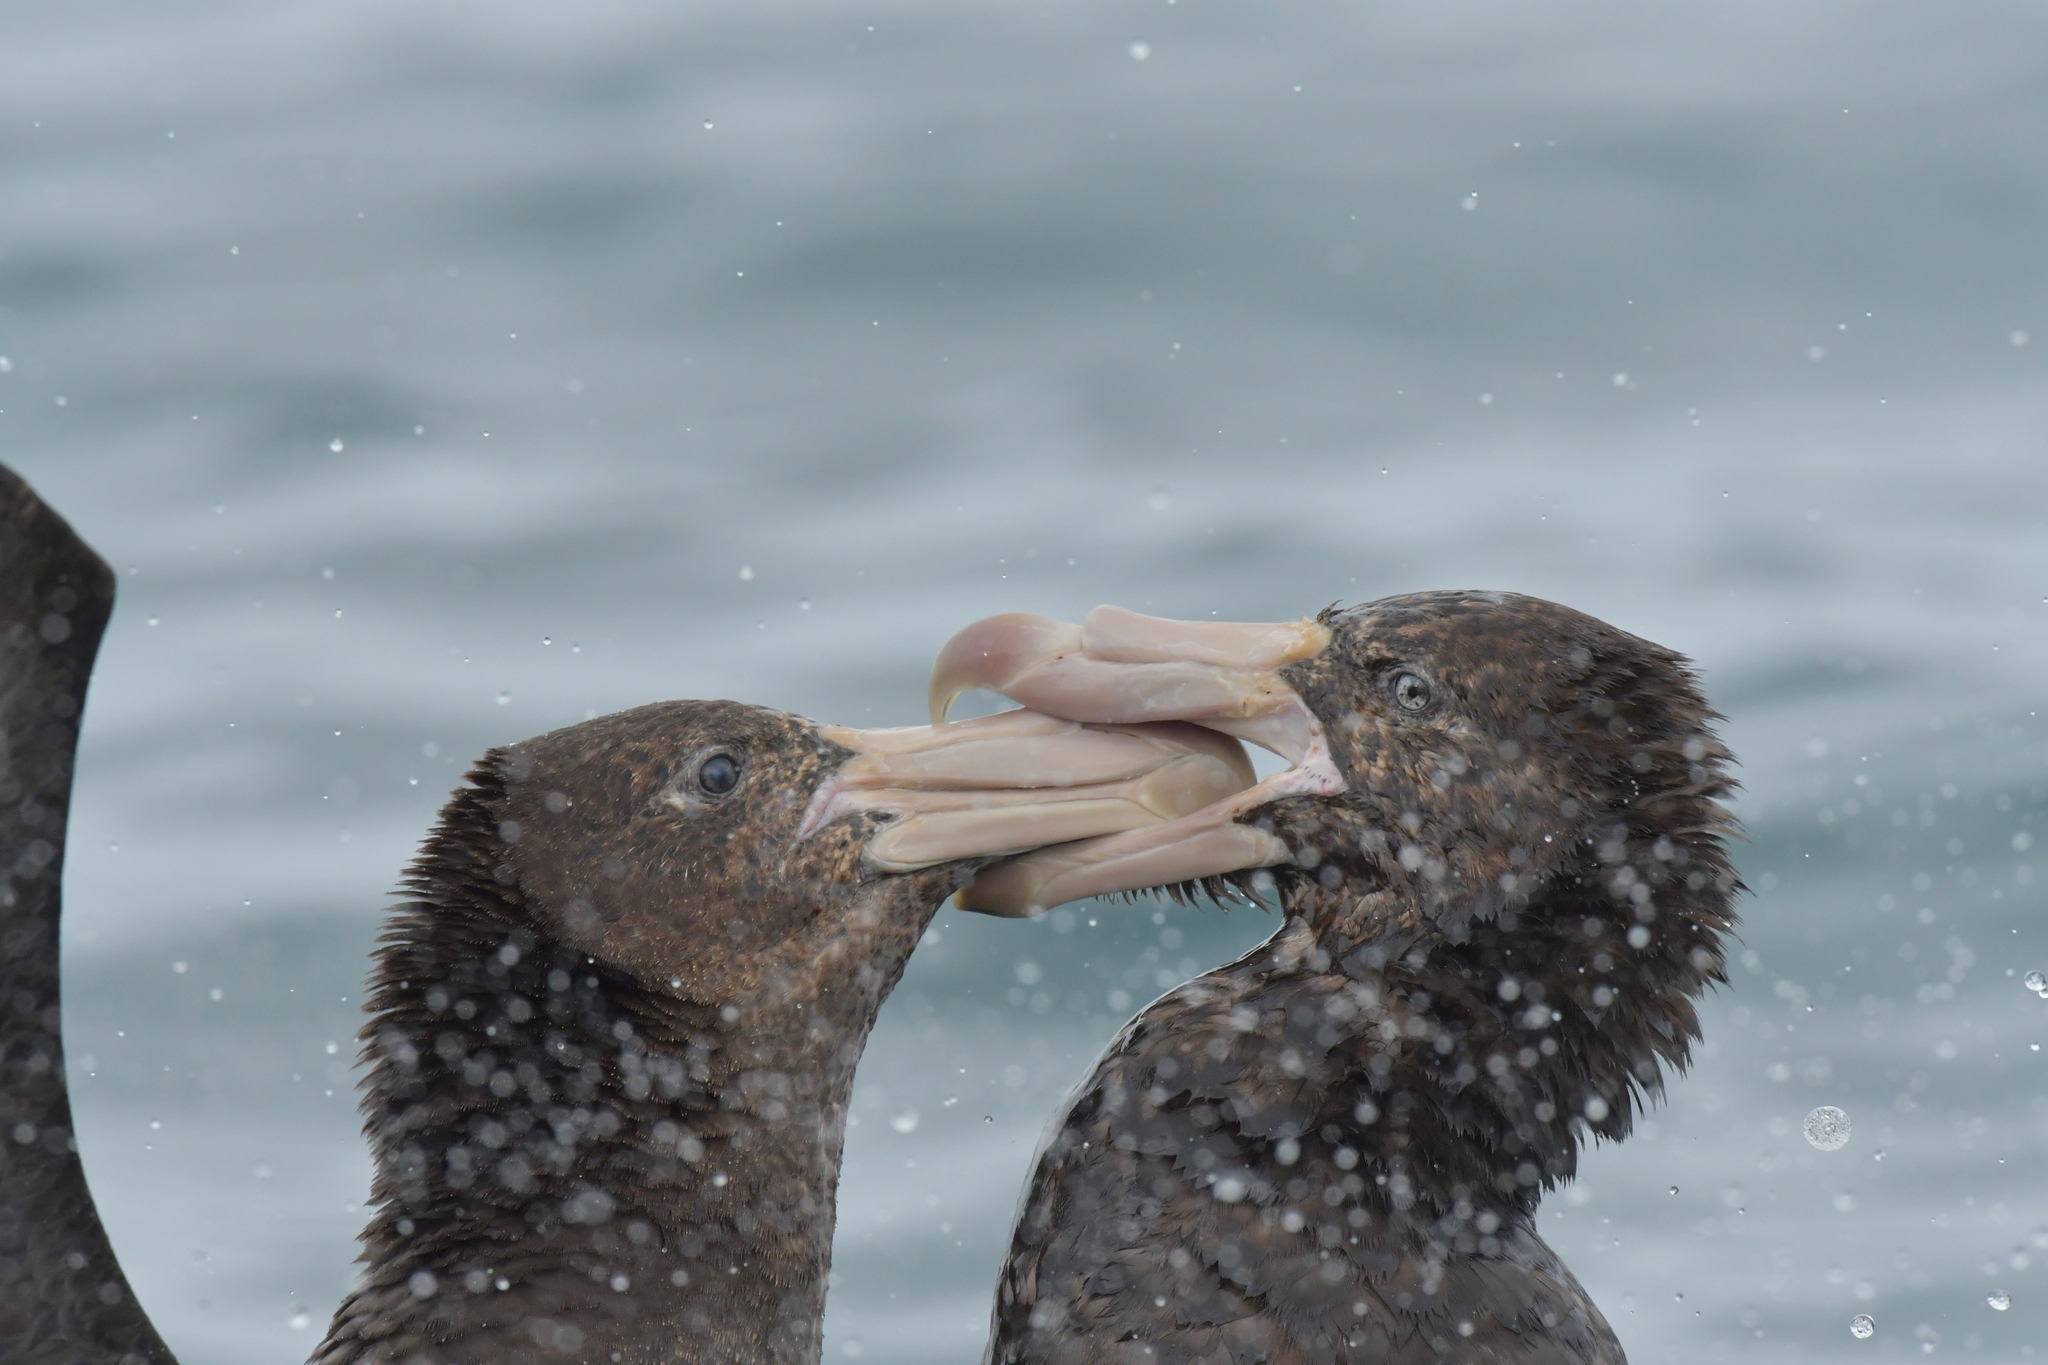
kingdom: Animalia
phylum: Chordata
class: Aves
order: Procellariiformes
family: Procellariidae
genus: Macronectes
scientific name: Macronectes halli
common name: Northern giant petrel
